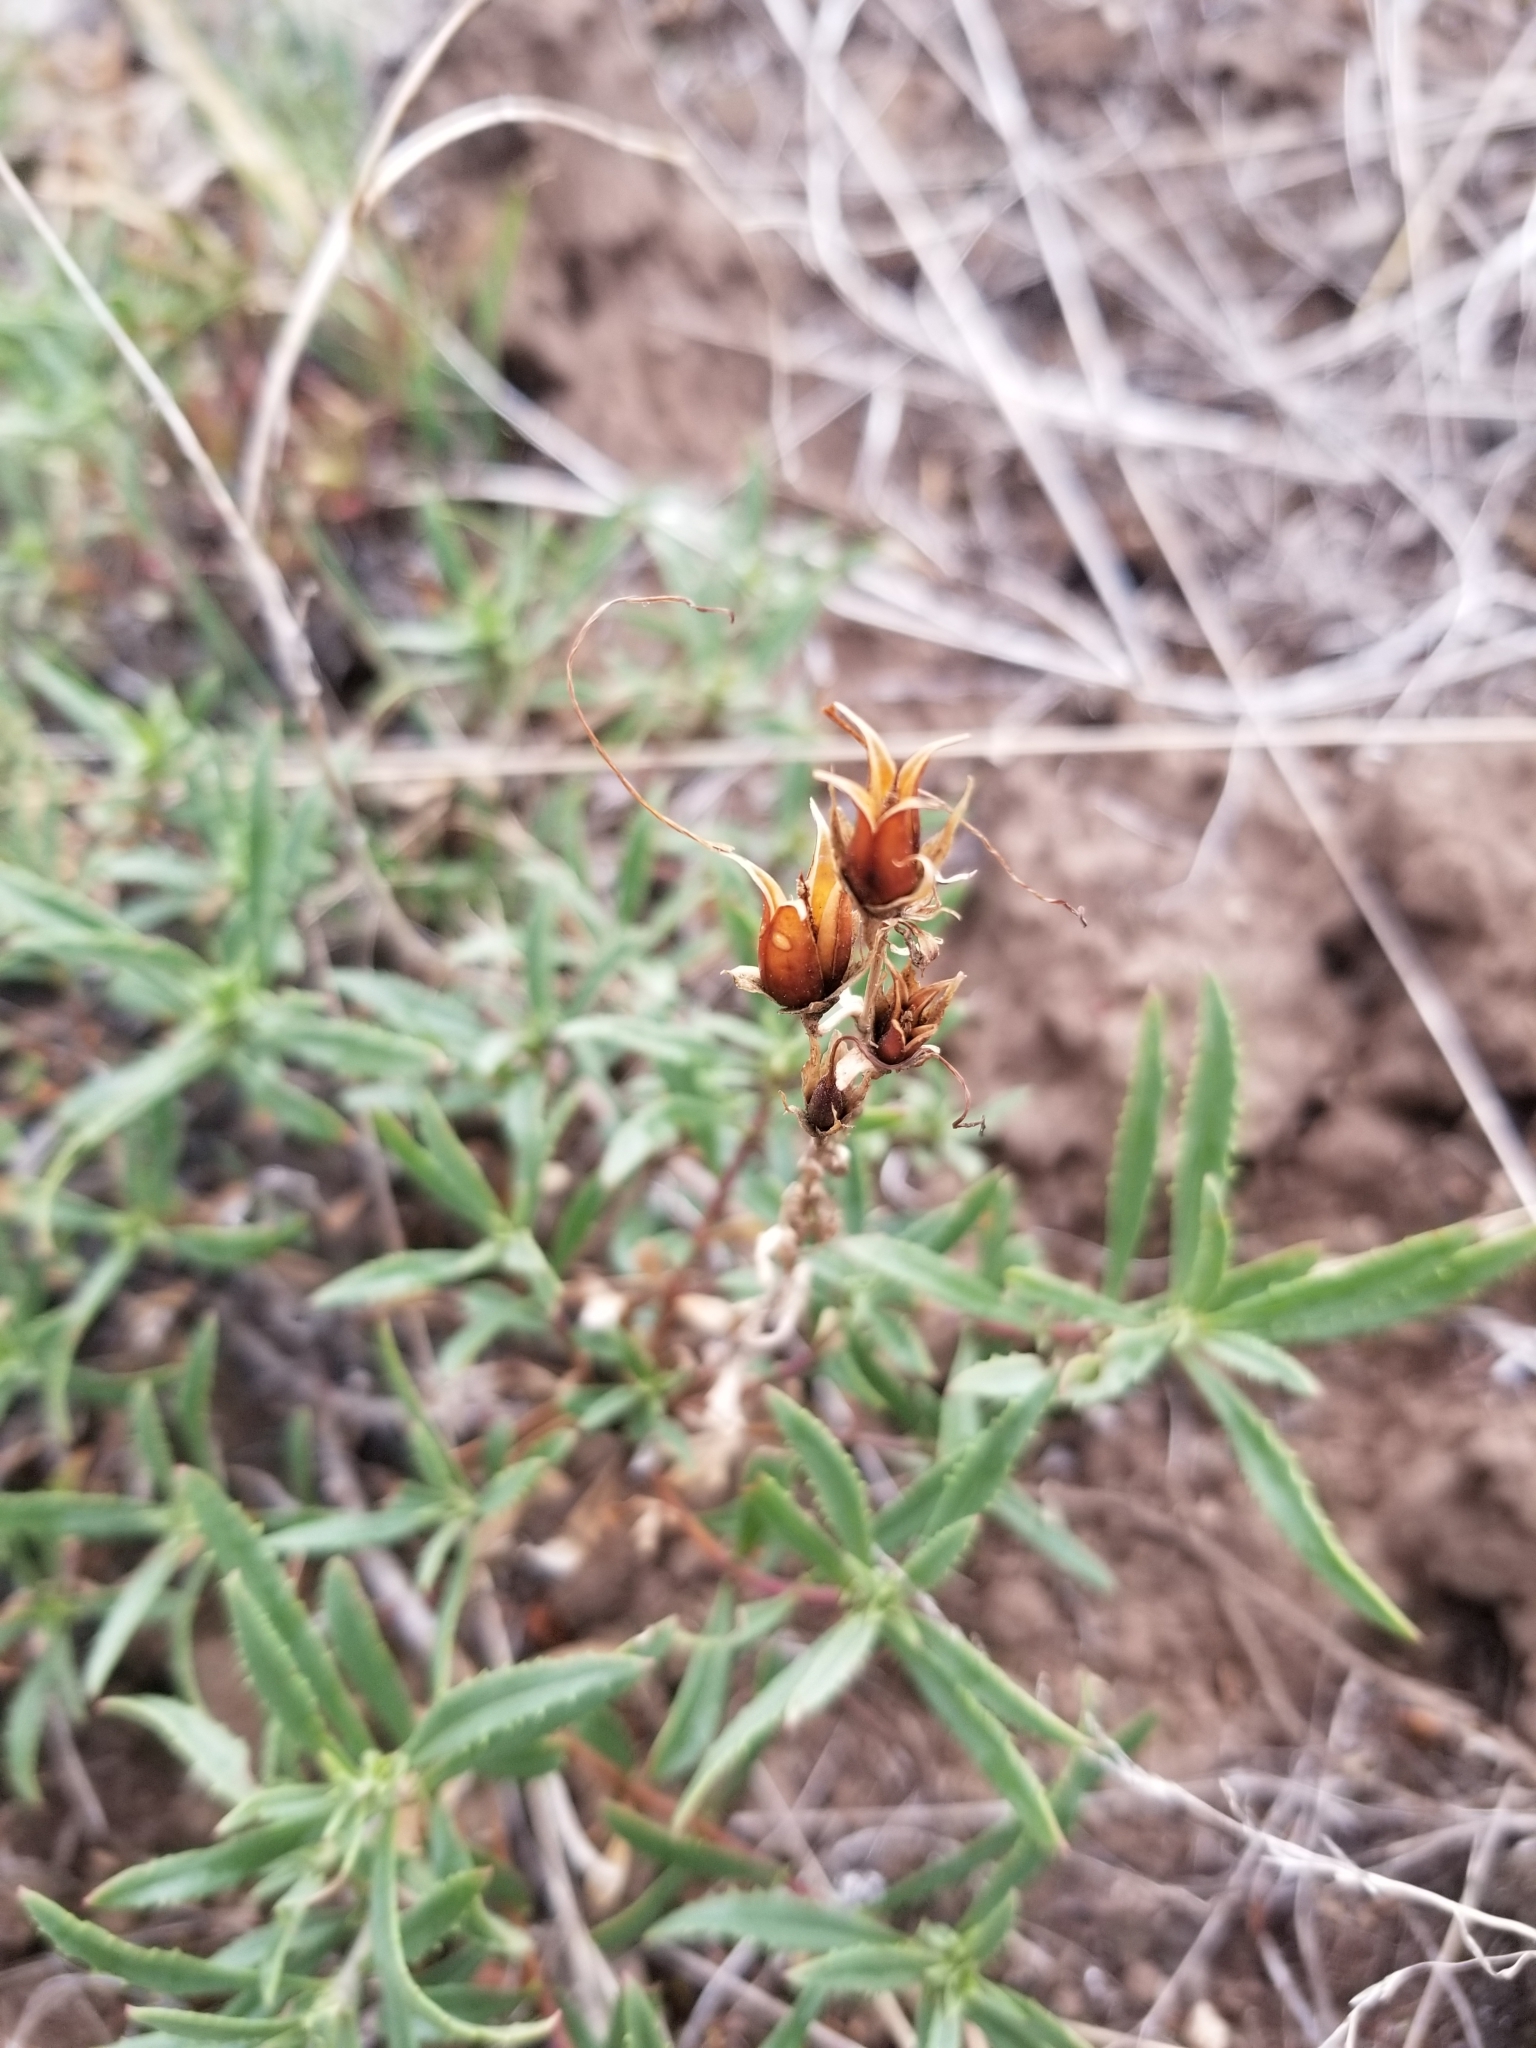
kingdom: Plantae
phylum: Tracheophyta
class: Magnoliopsida
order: Lamiales
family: Plantaginaceae
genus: Penstemon
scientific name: Penstemon fruticosus
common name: Bush penstemon
